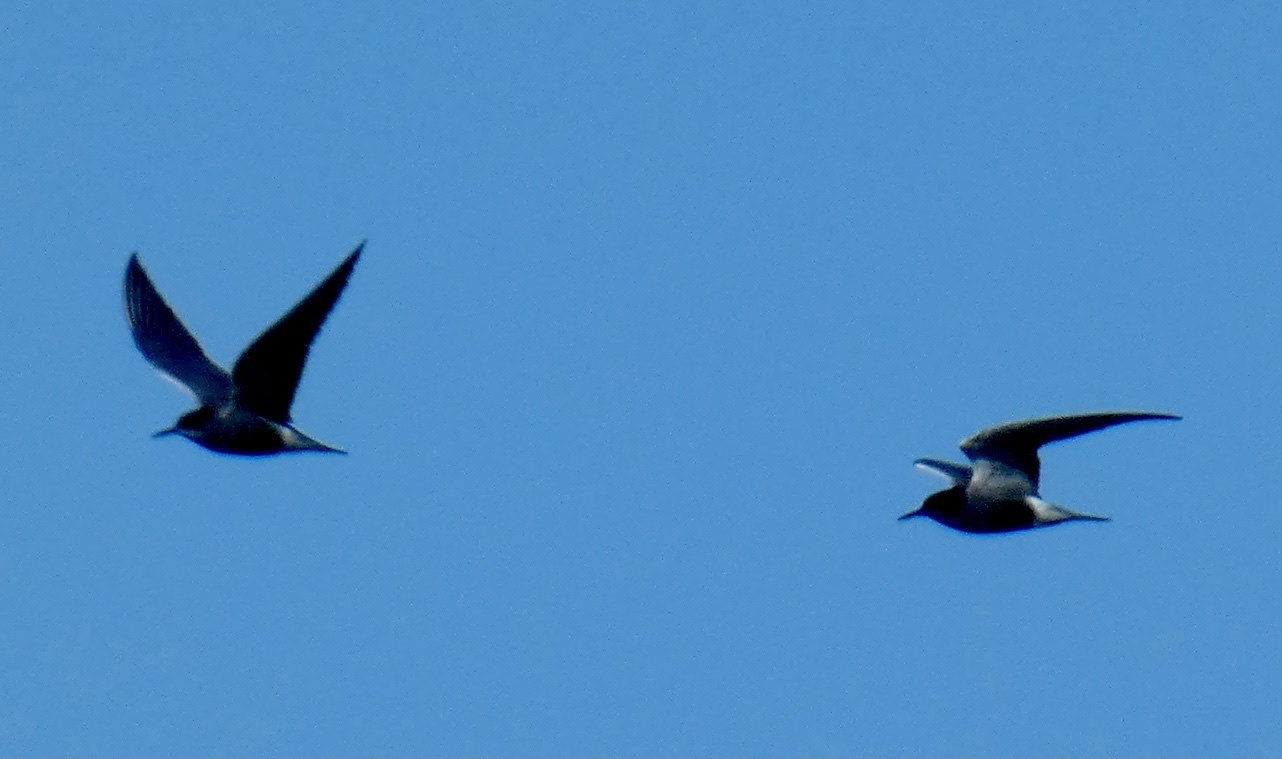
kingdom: Animalia
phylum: Chordata
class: Aves
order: Charadriiformes
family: Laridae
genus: Chlidonias
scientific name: Chlidonias niger
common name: Black tern
